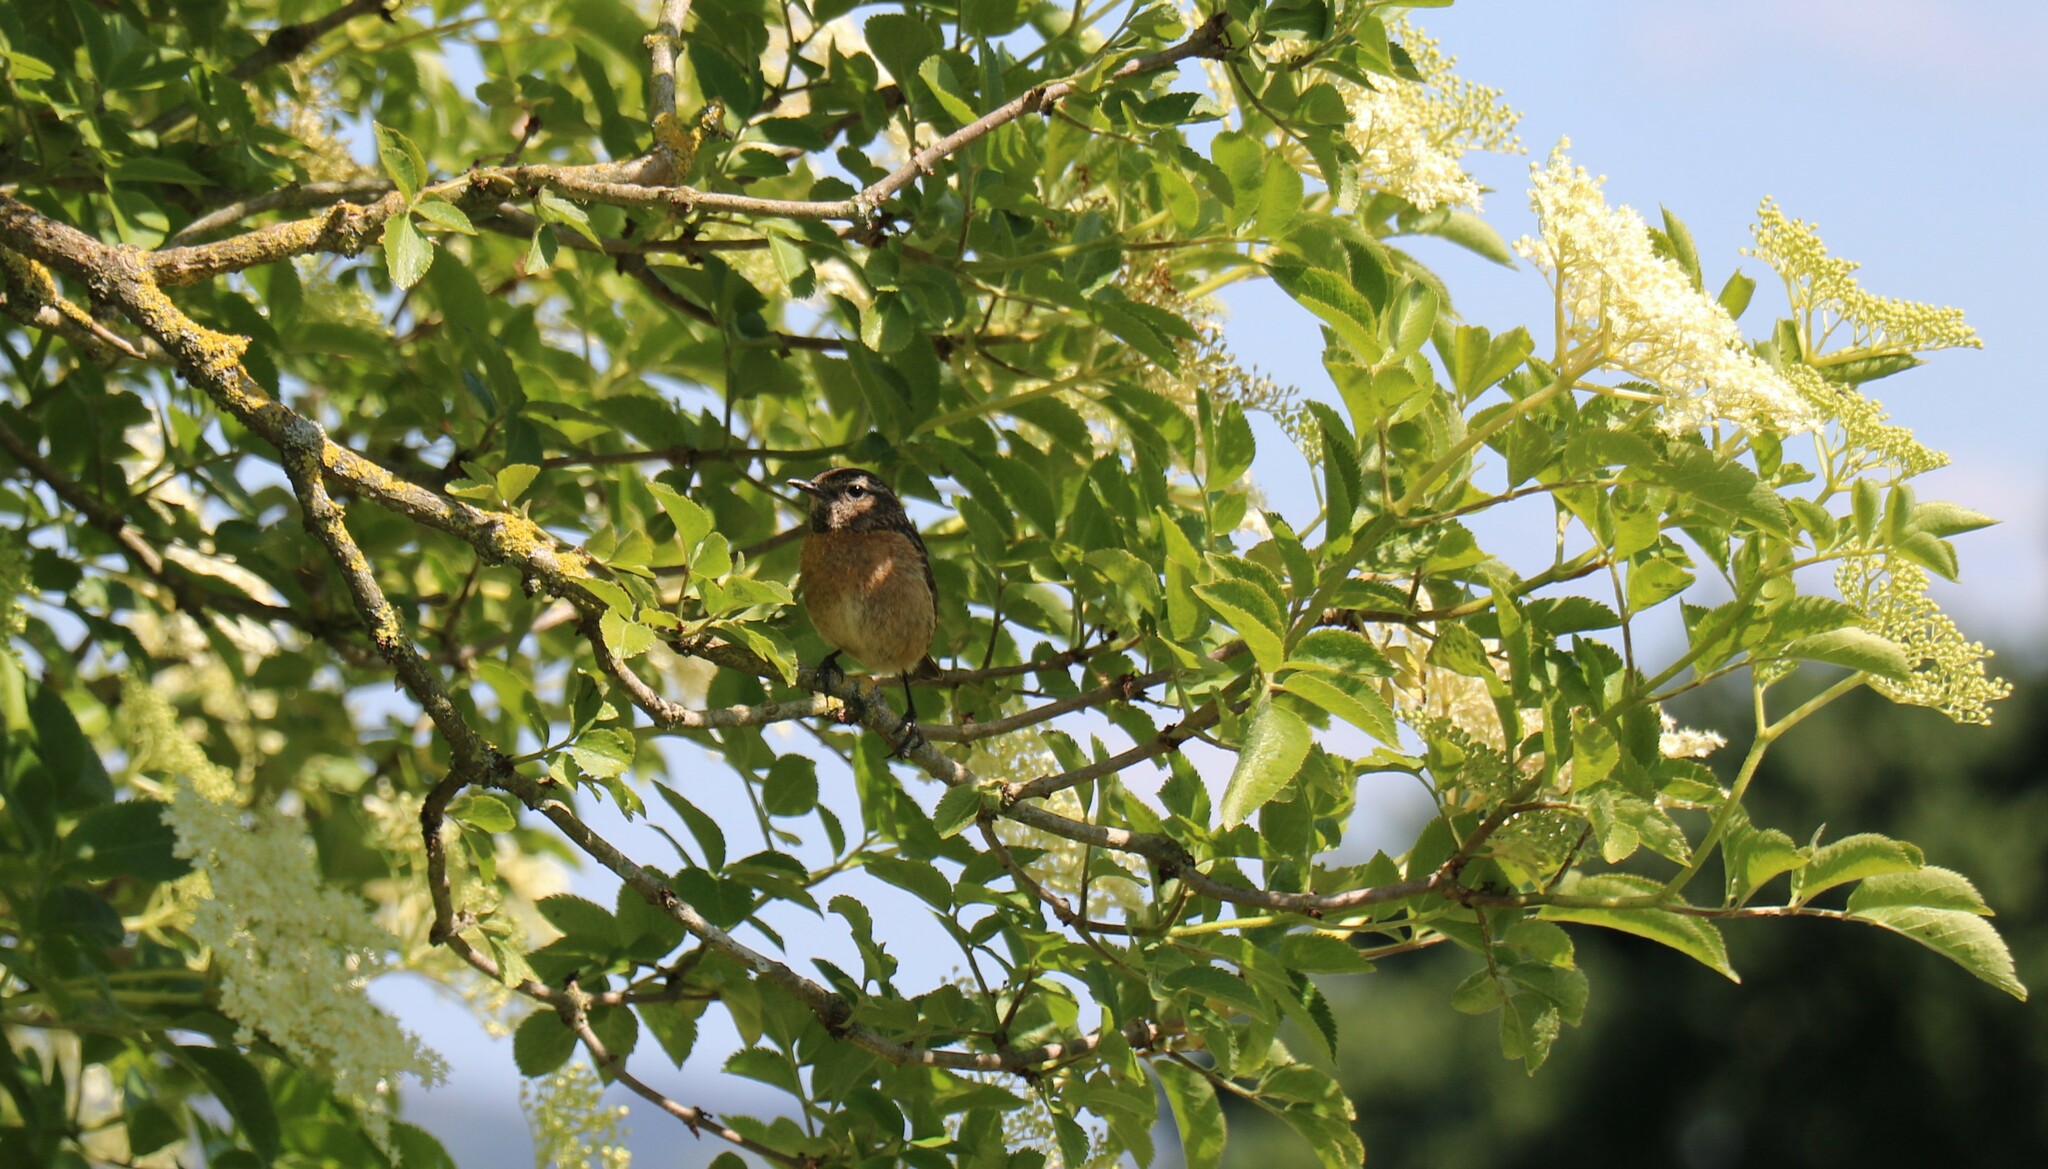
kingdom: Animalia
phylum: Chordata
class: Aves
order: Passeriformes
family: Muscicapidae
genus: Saxicola
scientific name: Saxicola rubicola
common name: European stonechat
